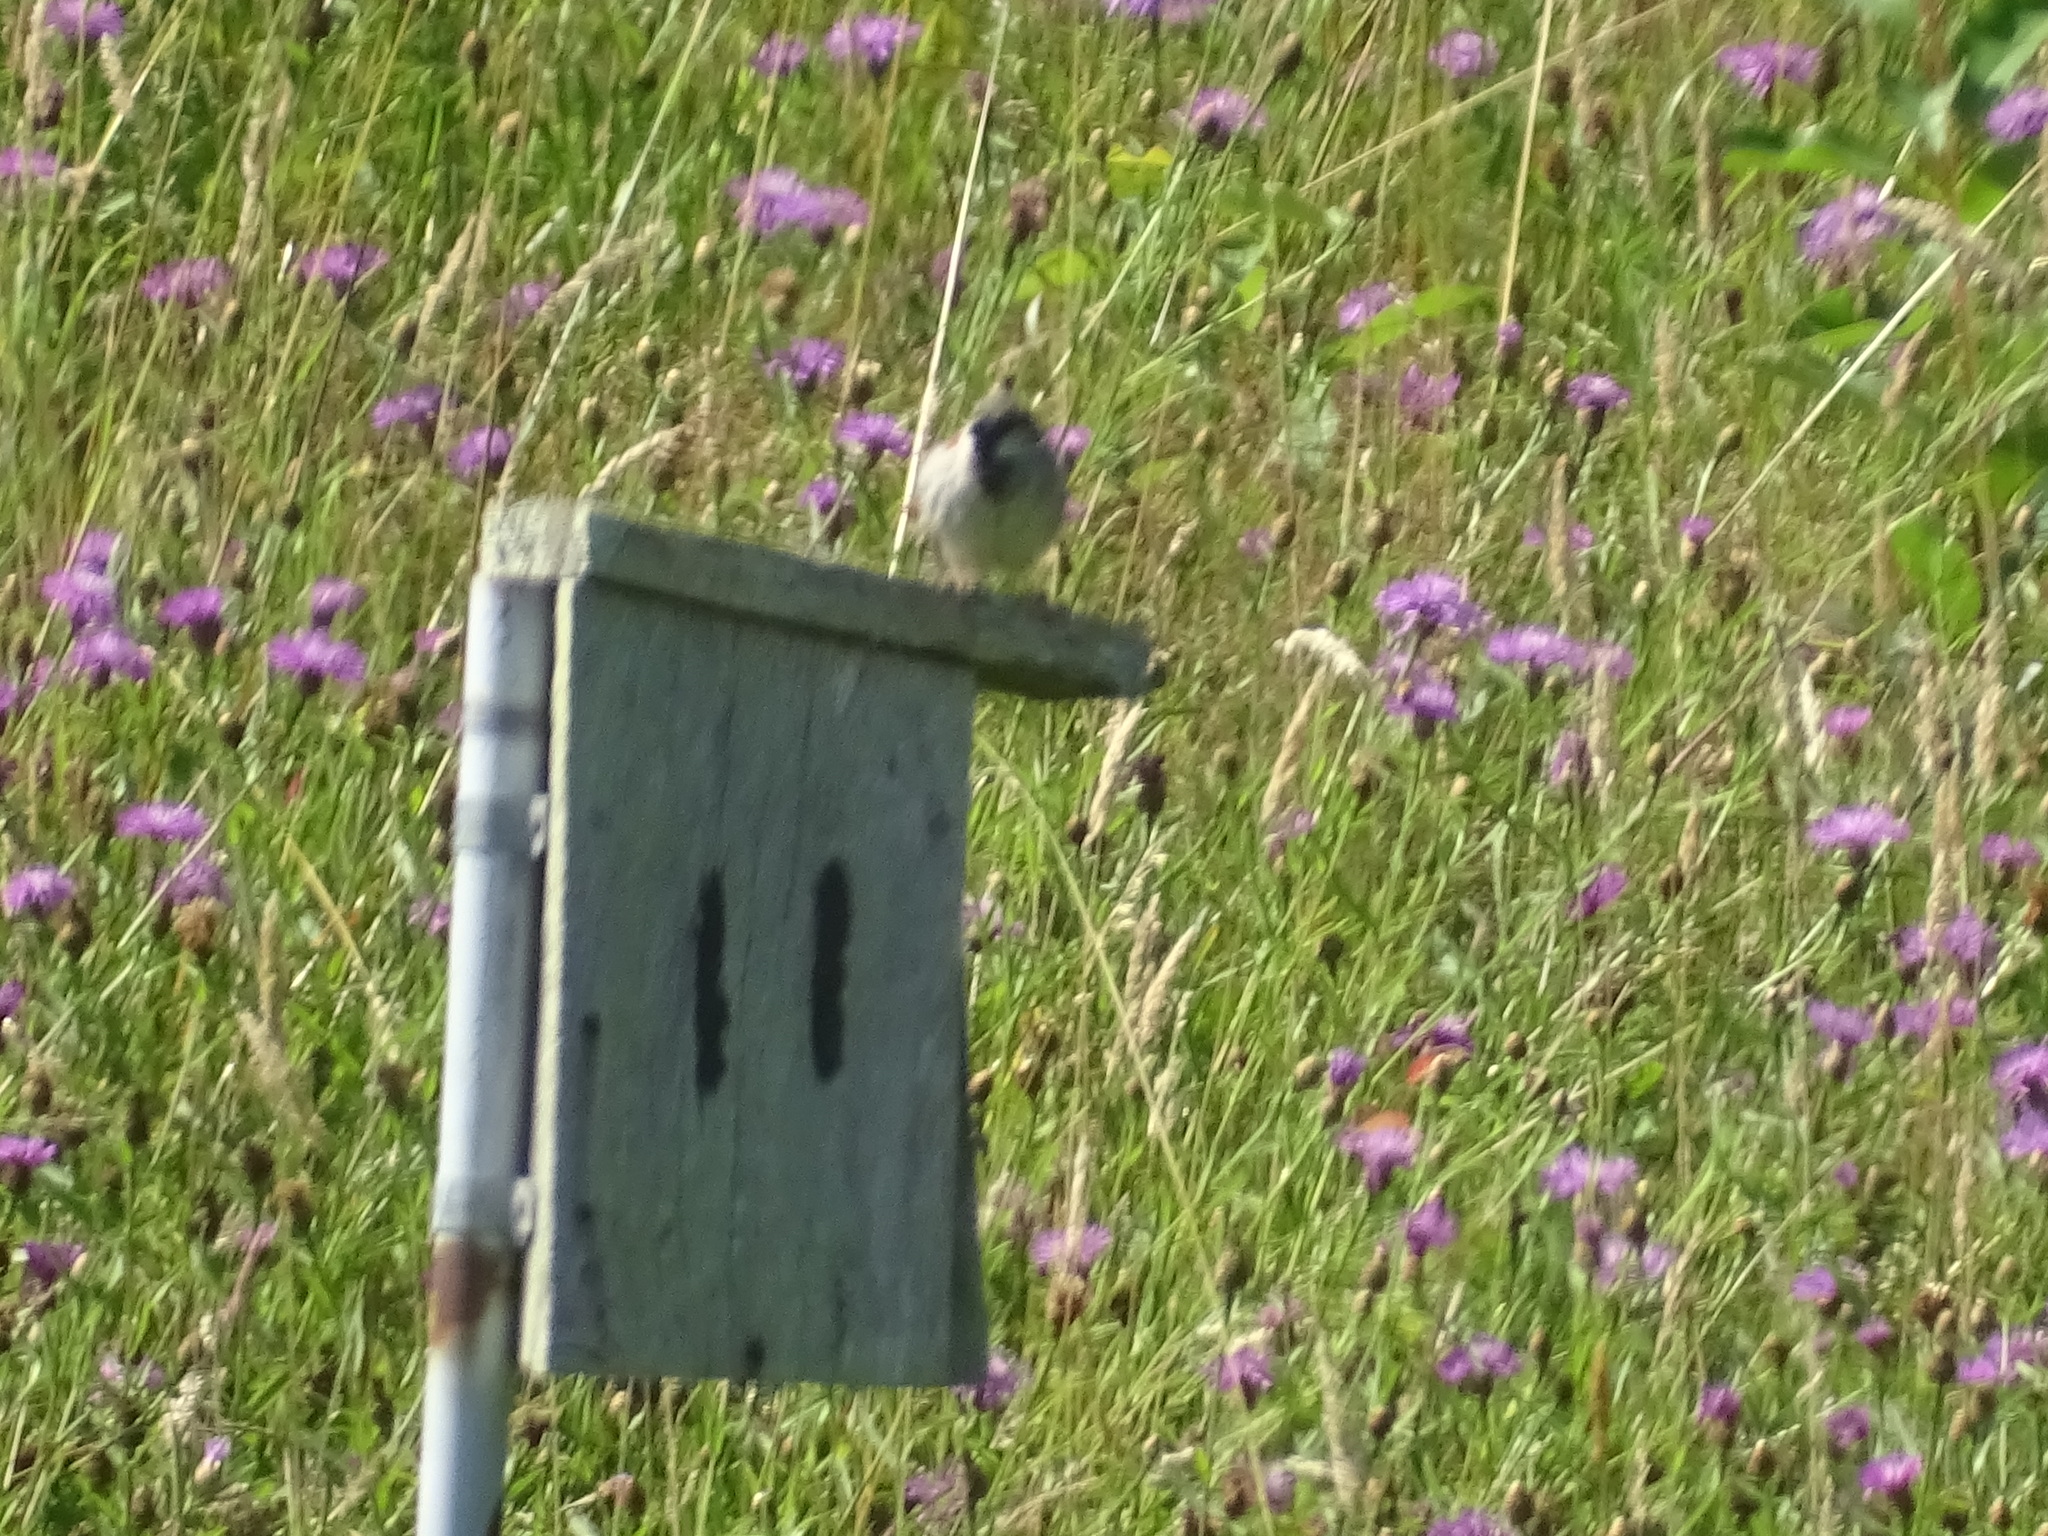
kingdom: Animalia
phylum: Chordata
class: Aves
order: Passeriformes
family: Passeridae
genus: Passer
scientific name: Passer domesticus
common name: House sparrow
